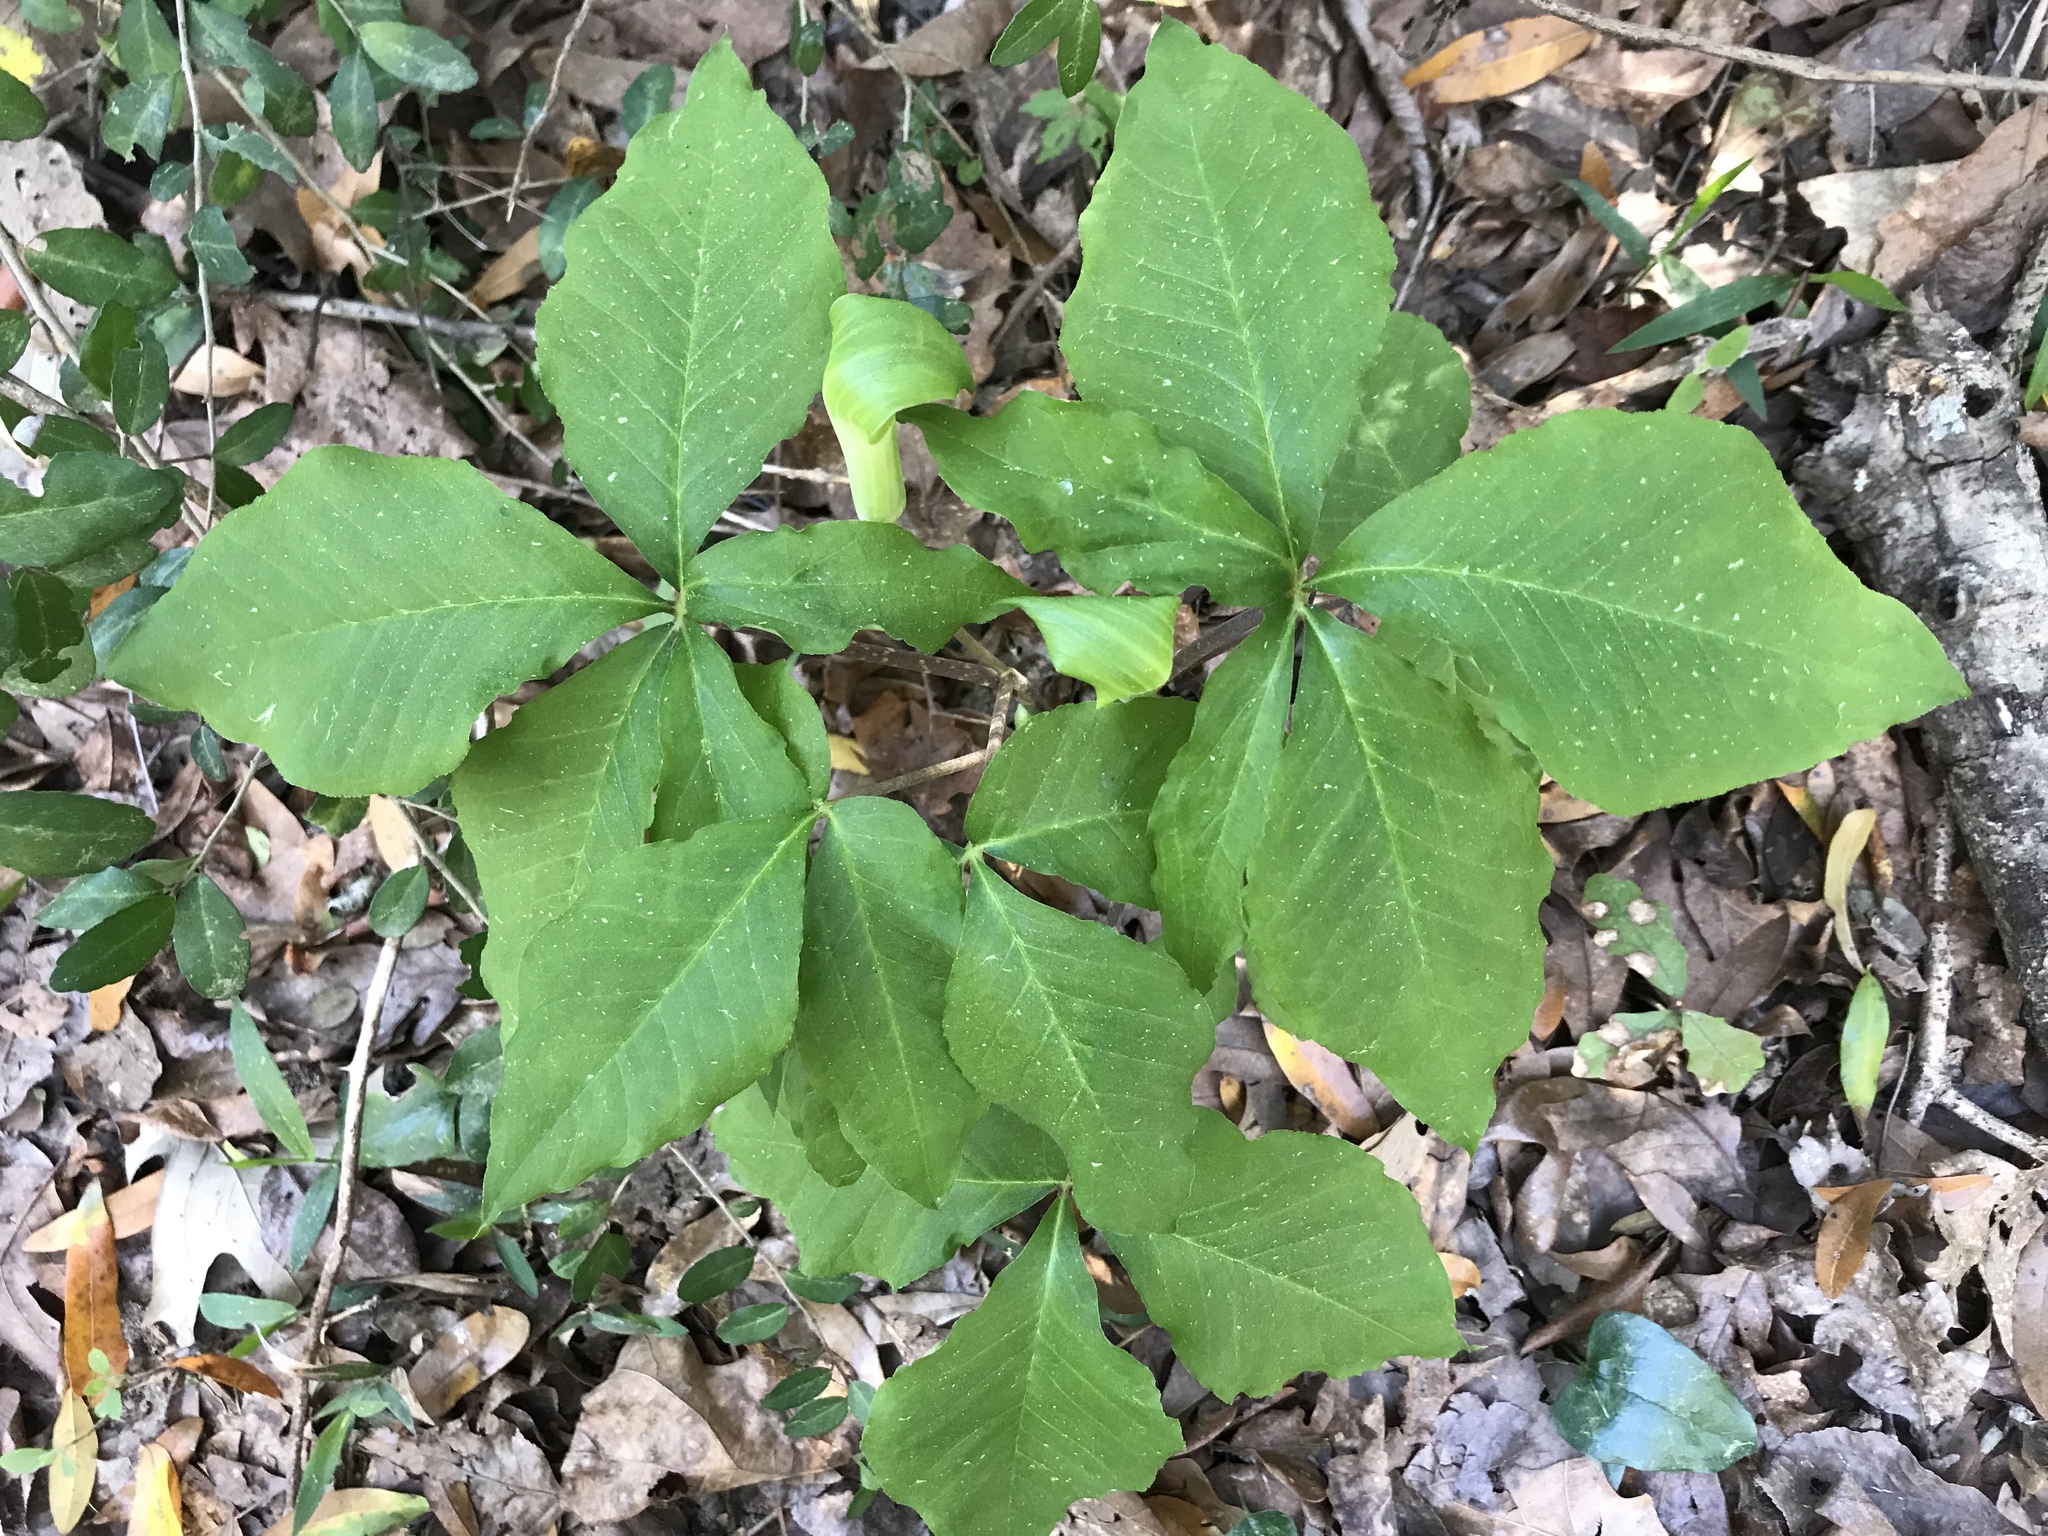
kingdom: Plantae
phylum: Tracheophyta
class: Liliopsida
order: Alismatales
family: Araceae
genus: Arisaema
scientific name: Arisaema quinatum
